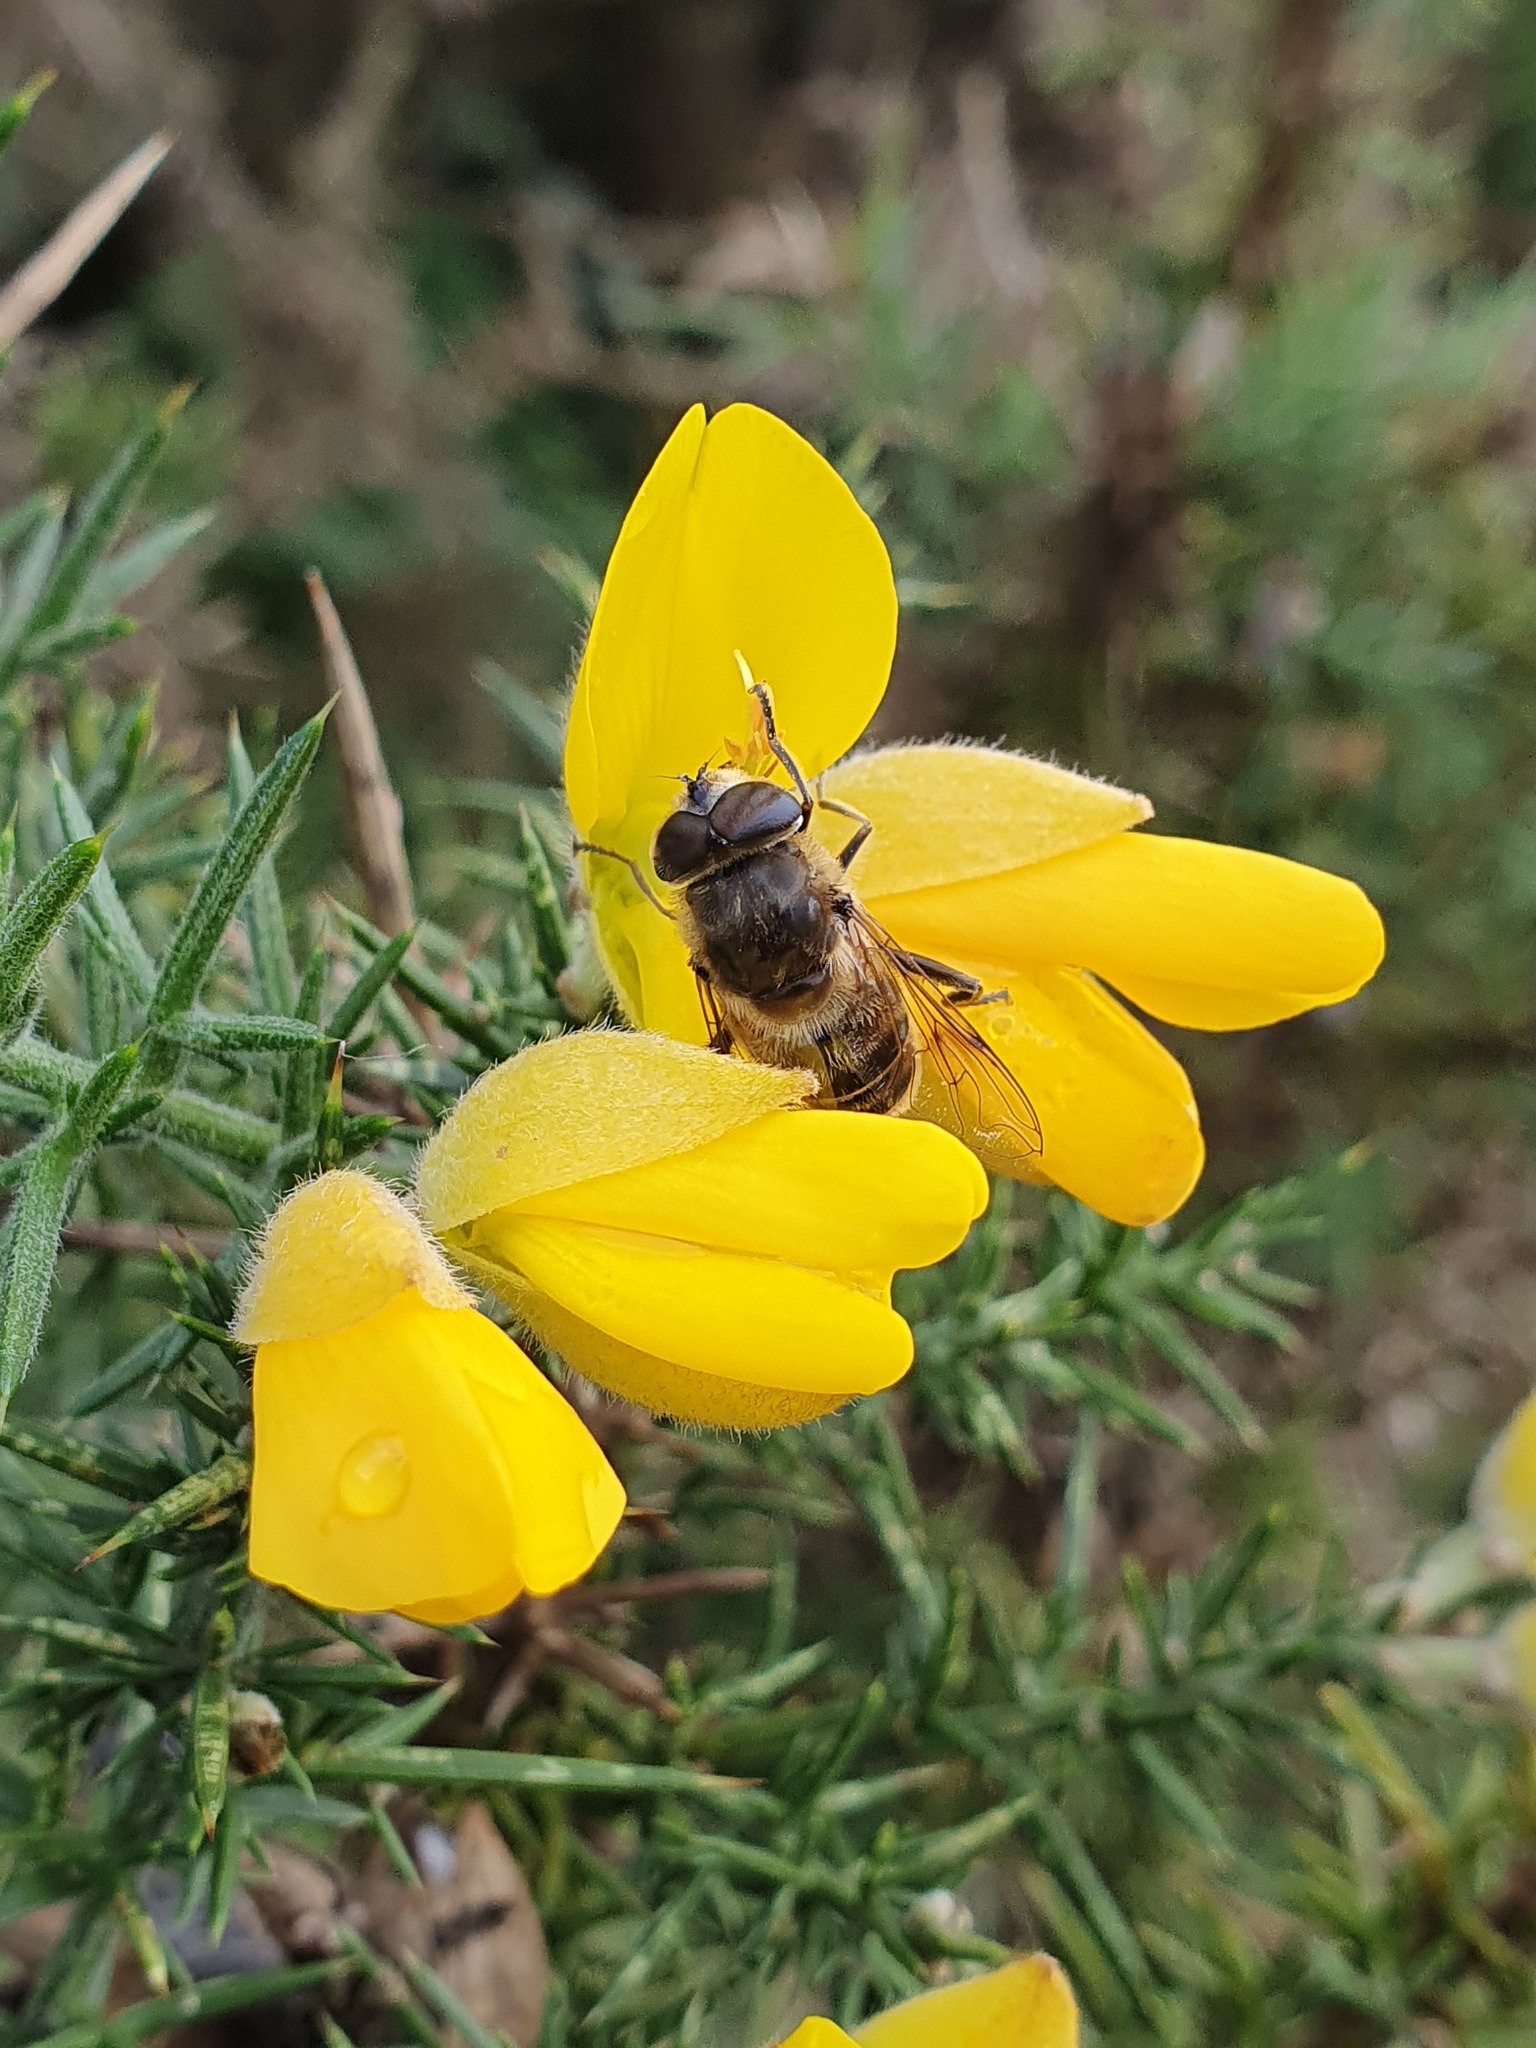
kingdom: Plantae
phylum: Tracheophyta
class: Magnoliopsida
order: Fabales
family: Fabaceae
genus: Ulex
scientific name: Ulex europaeus
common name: Common gorse
